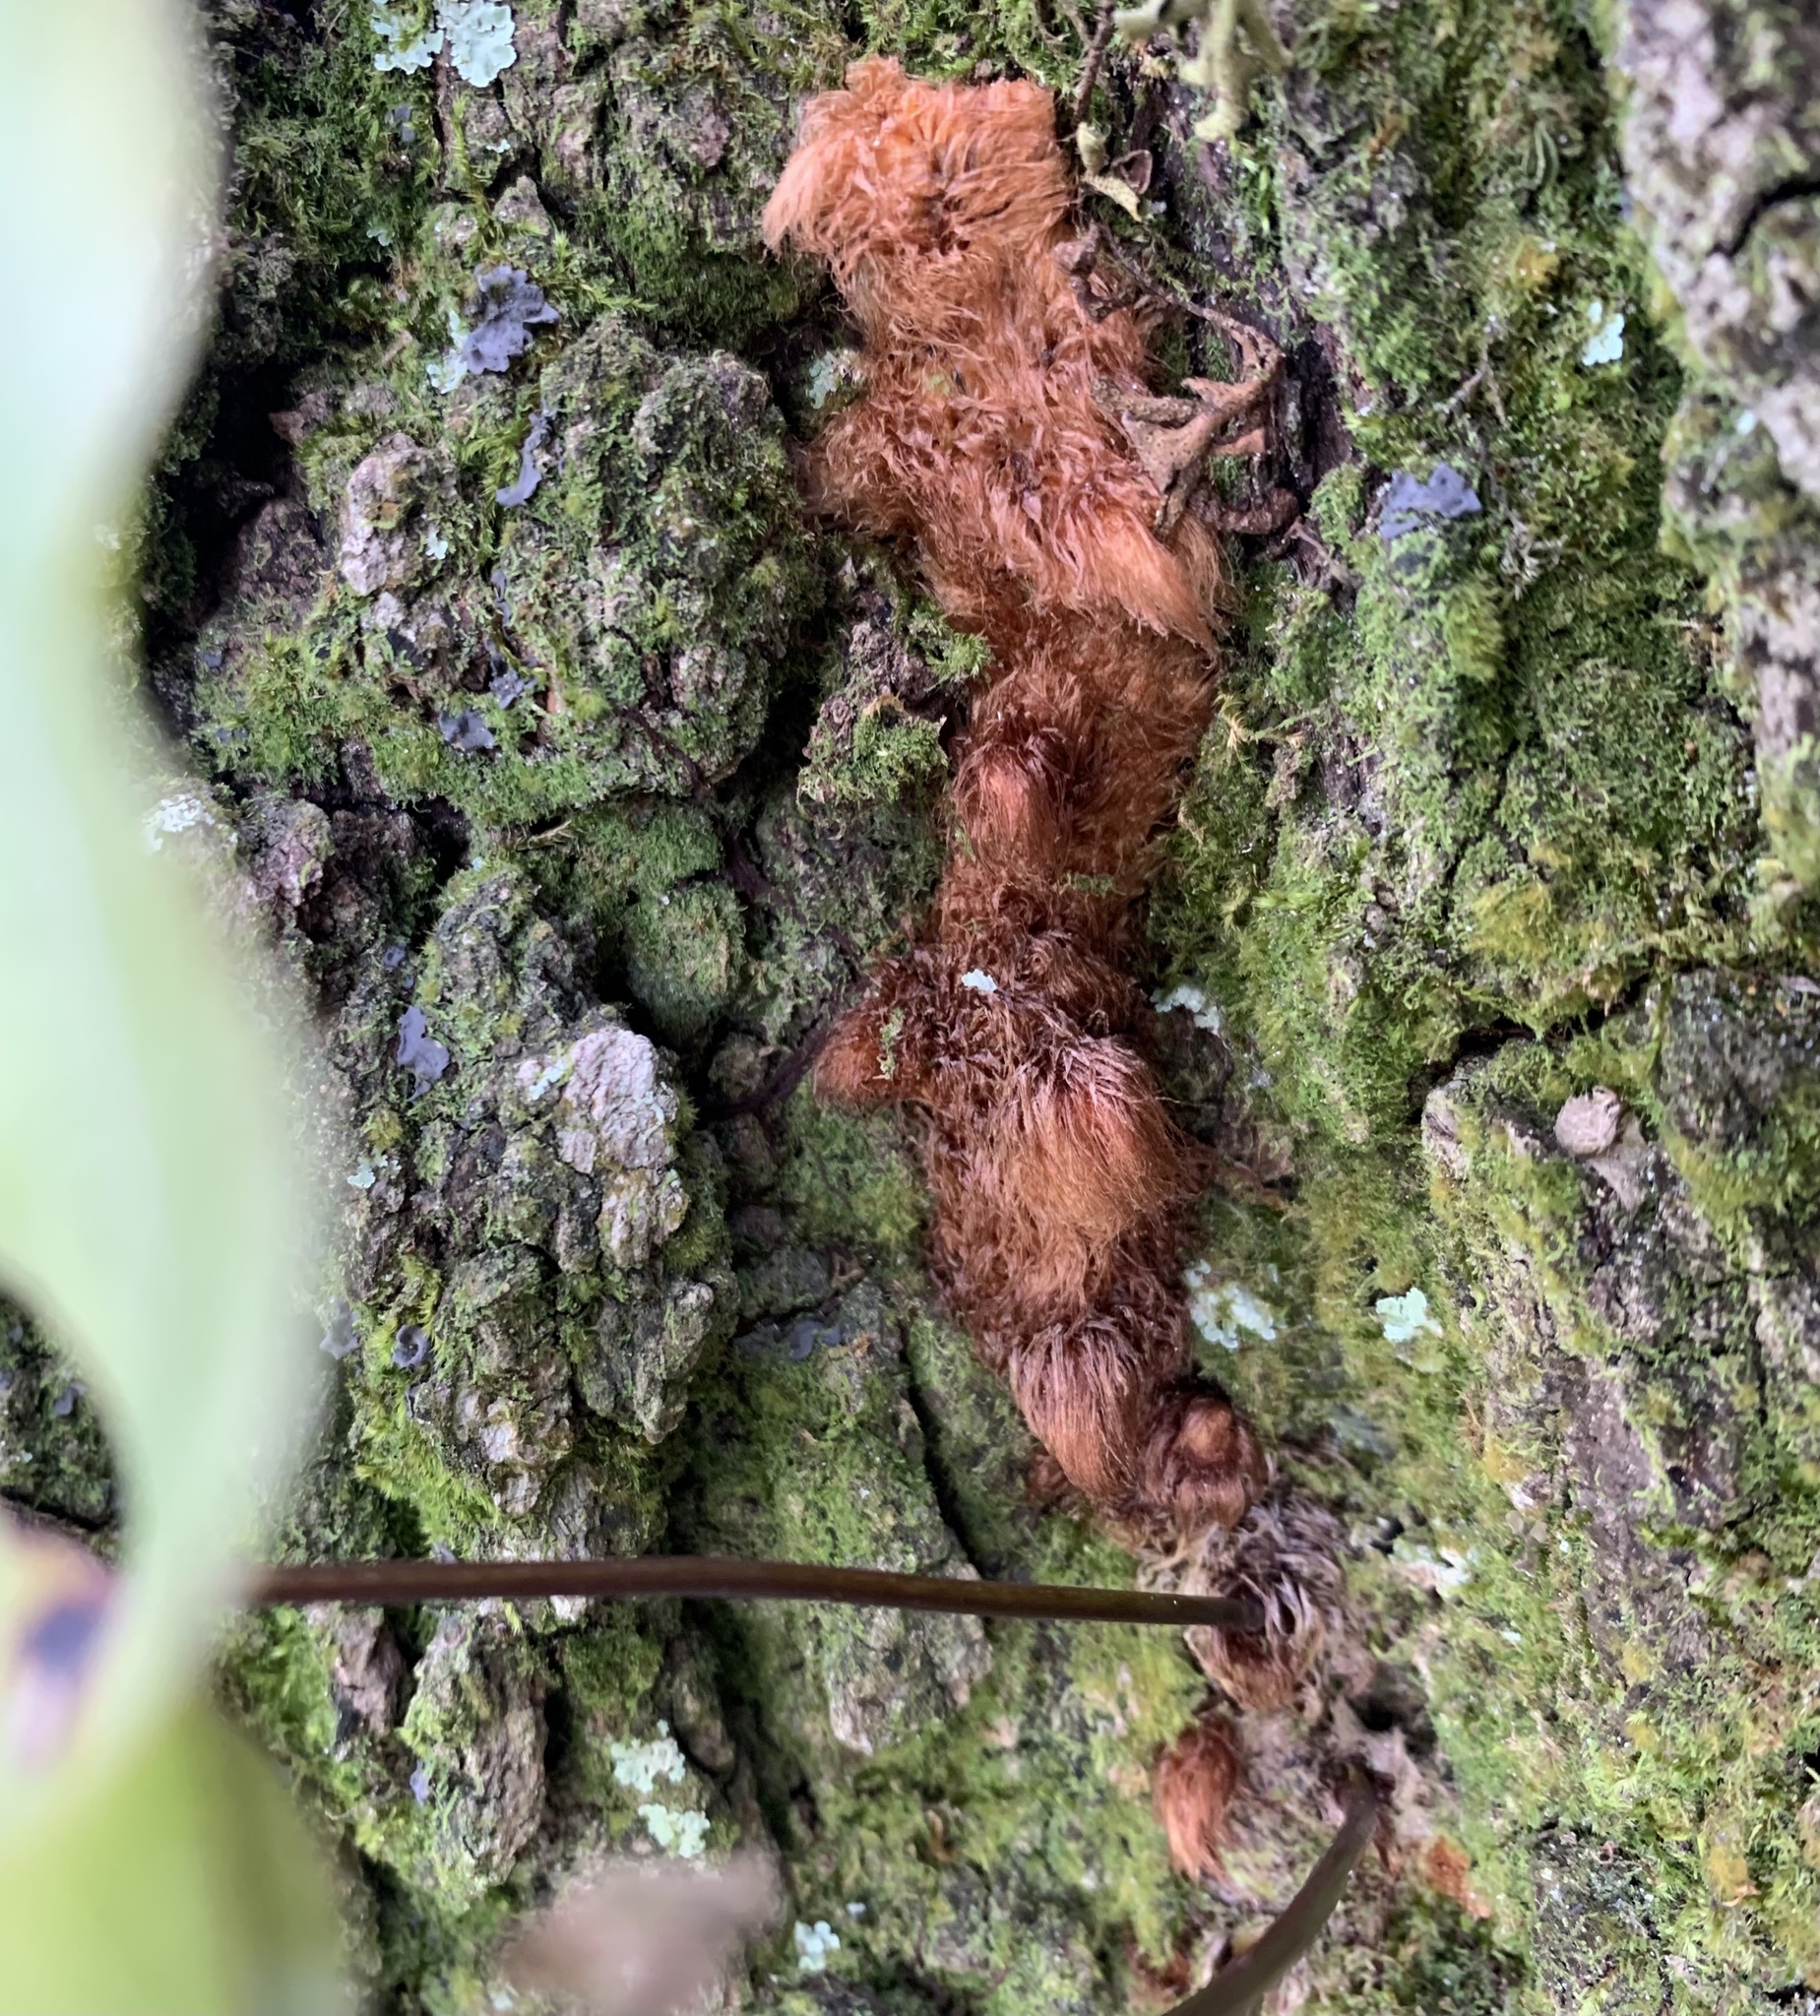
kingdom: Plantae
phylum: Tracheophyta
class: Polypodiopsida
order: Polypodiales
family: Polypodiaceae
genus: Phlebodium
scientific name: Phlebodium aureum
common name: Gold-foot fern
